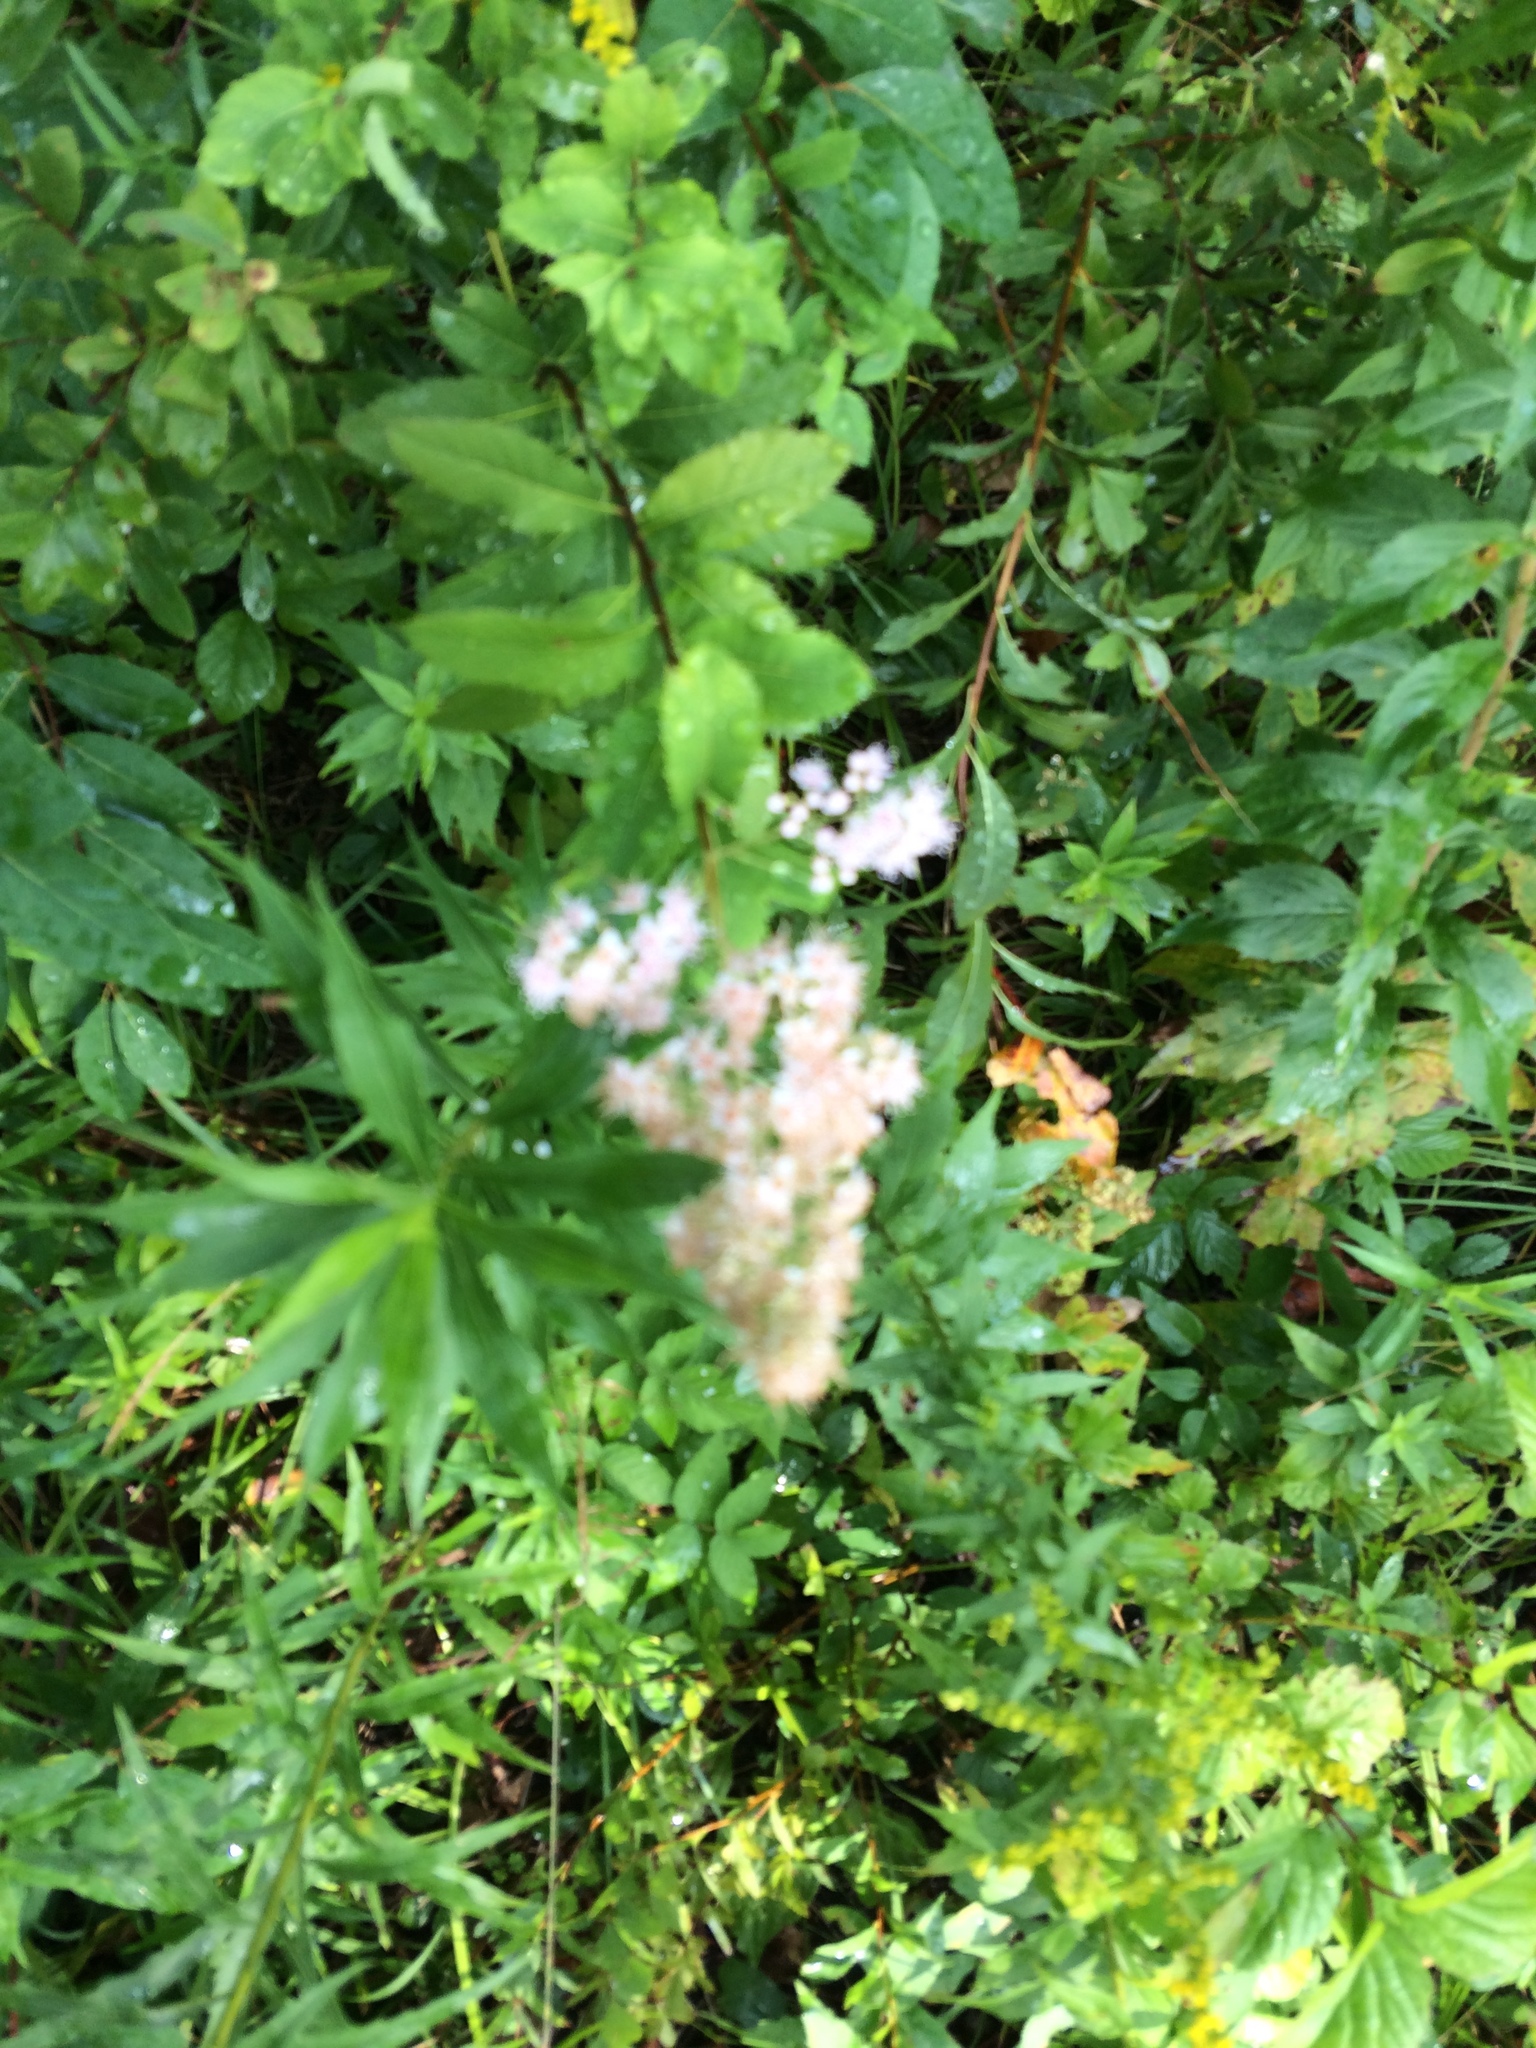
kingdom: Plantae
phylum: Tracheophyta
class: Magnoliopsida
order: Rosales
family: Rosaceae
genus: Spiraea
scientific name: Spiraea alba
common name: Pale bridewort
